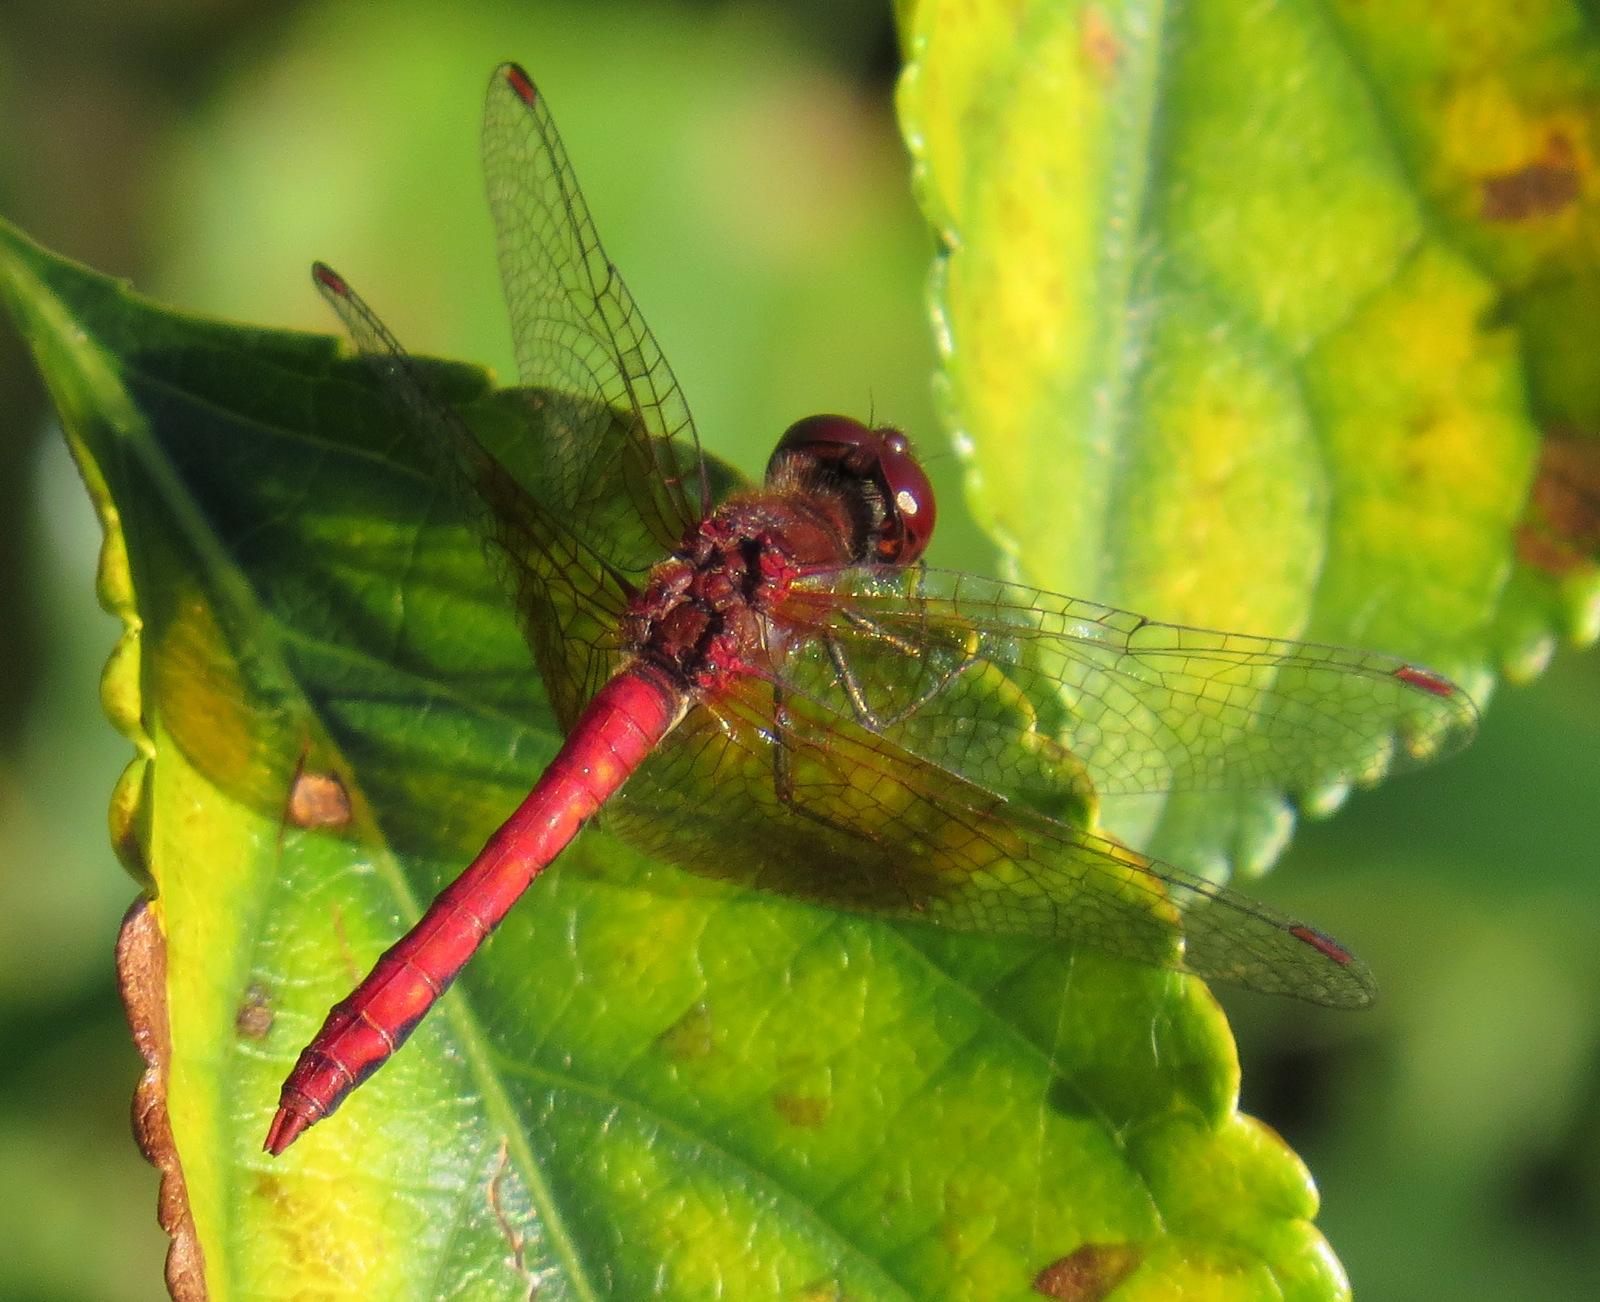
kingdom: Animalia
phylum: Arthropoda
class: Insecta
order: Odonata
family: Libellulidae
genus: Sympetrum
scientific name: Sympetrum semicinctum
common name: Band-winged meadowhawk
